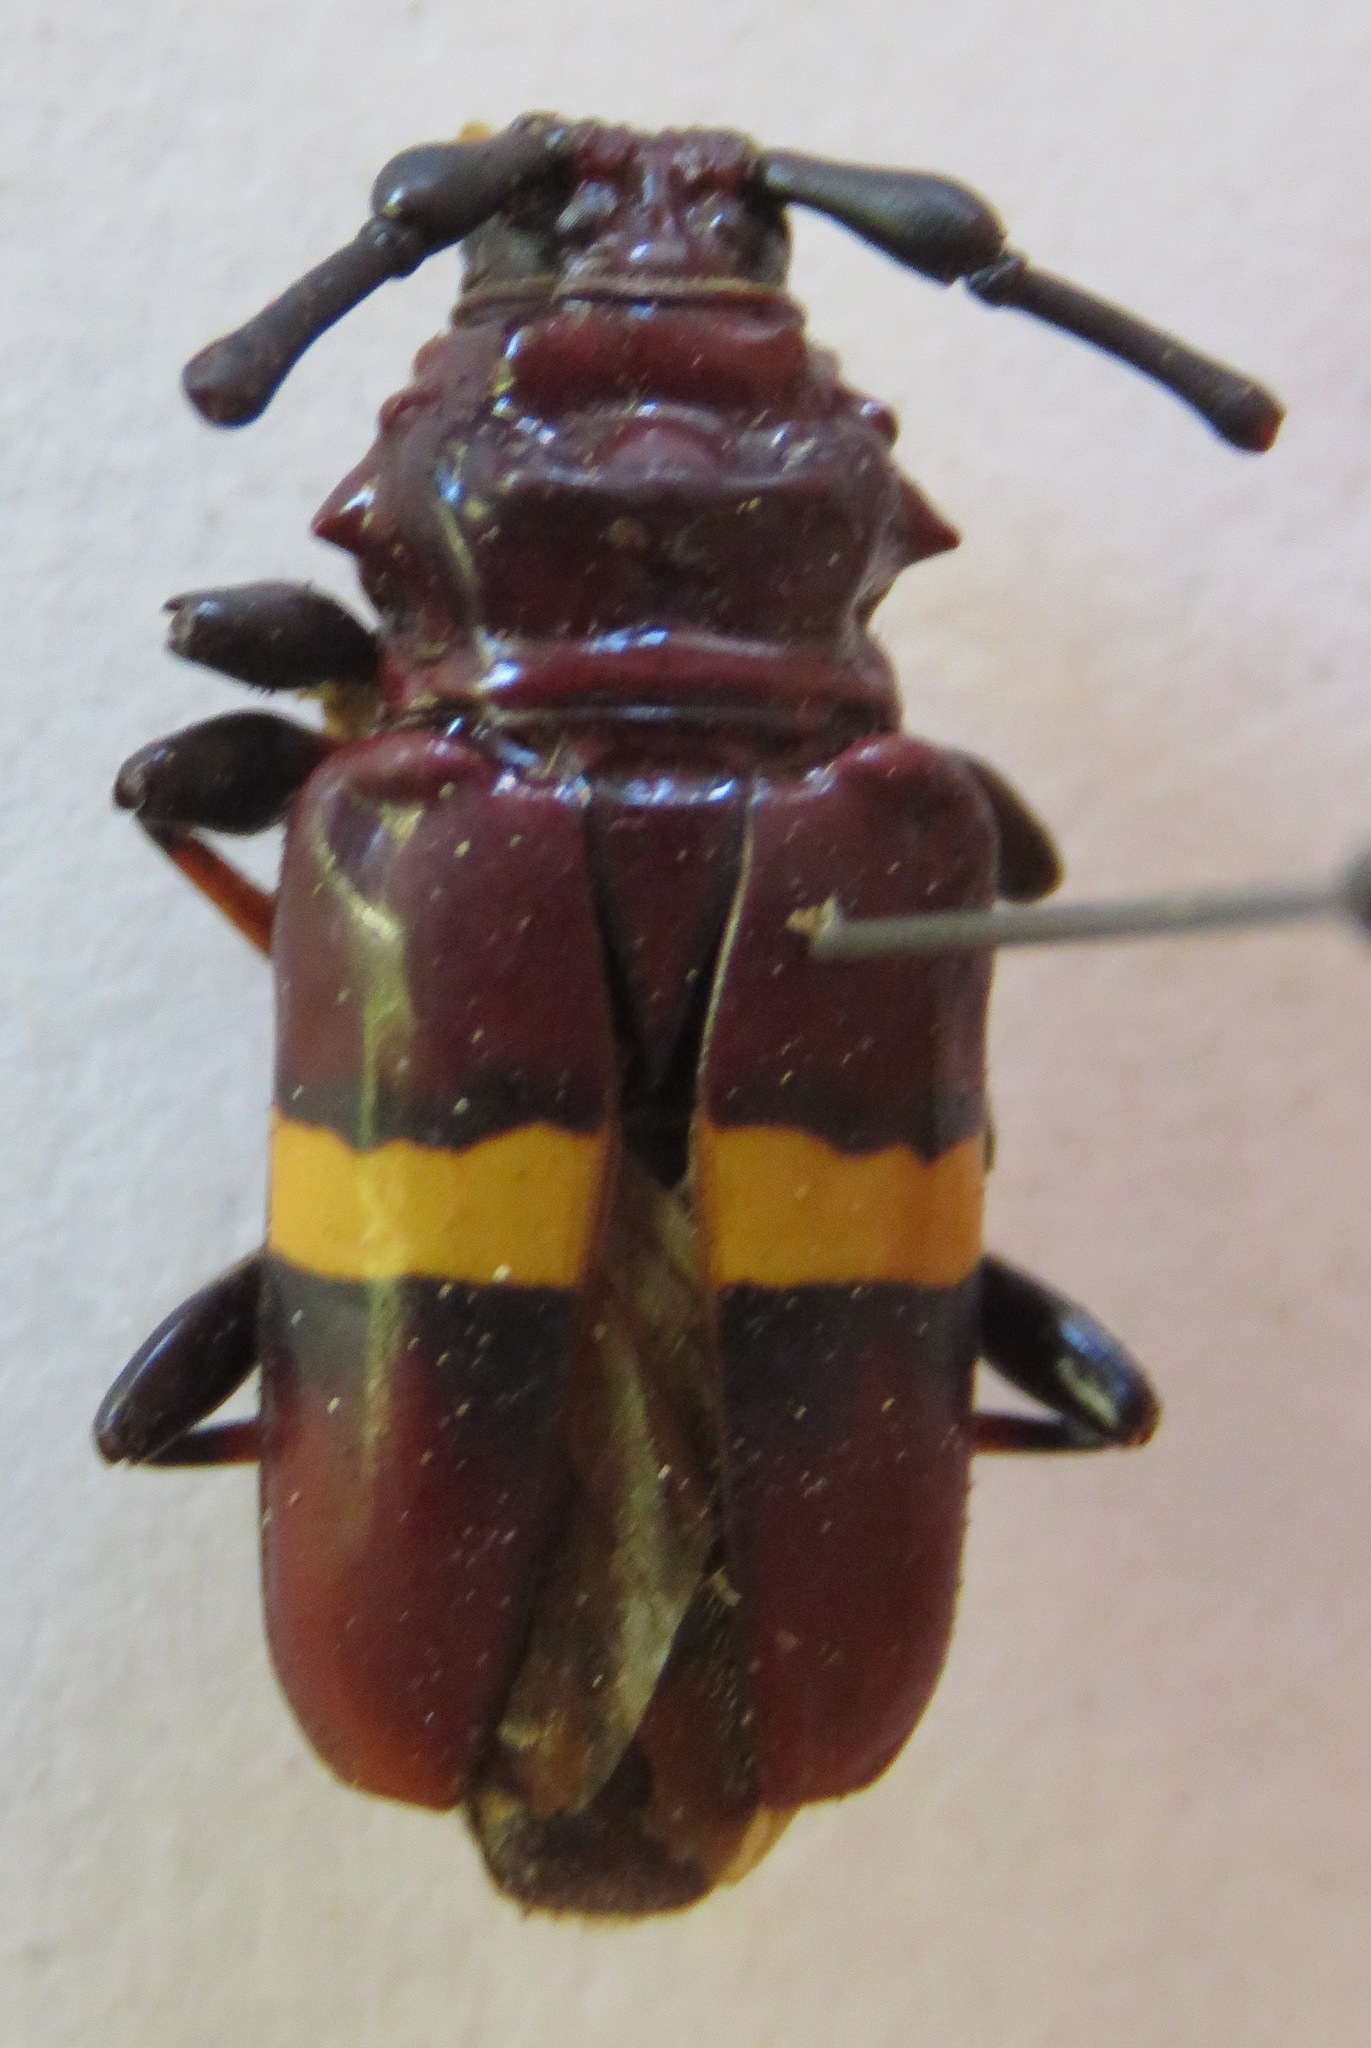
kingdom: Animalia
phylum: Arthropoda
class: Insecta
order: Coleoptera
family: Cerambycidae
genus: Trachyderes
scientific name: Trachyderes elegans
